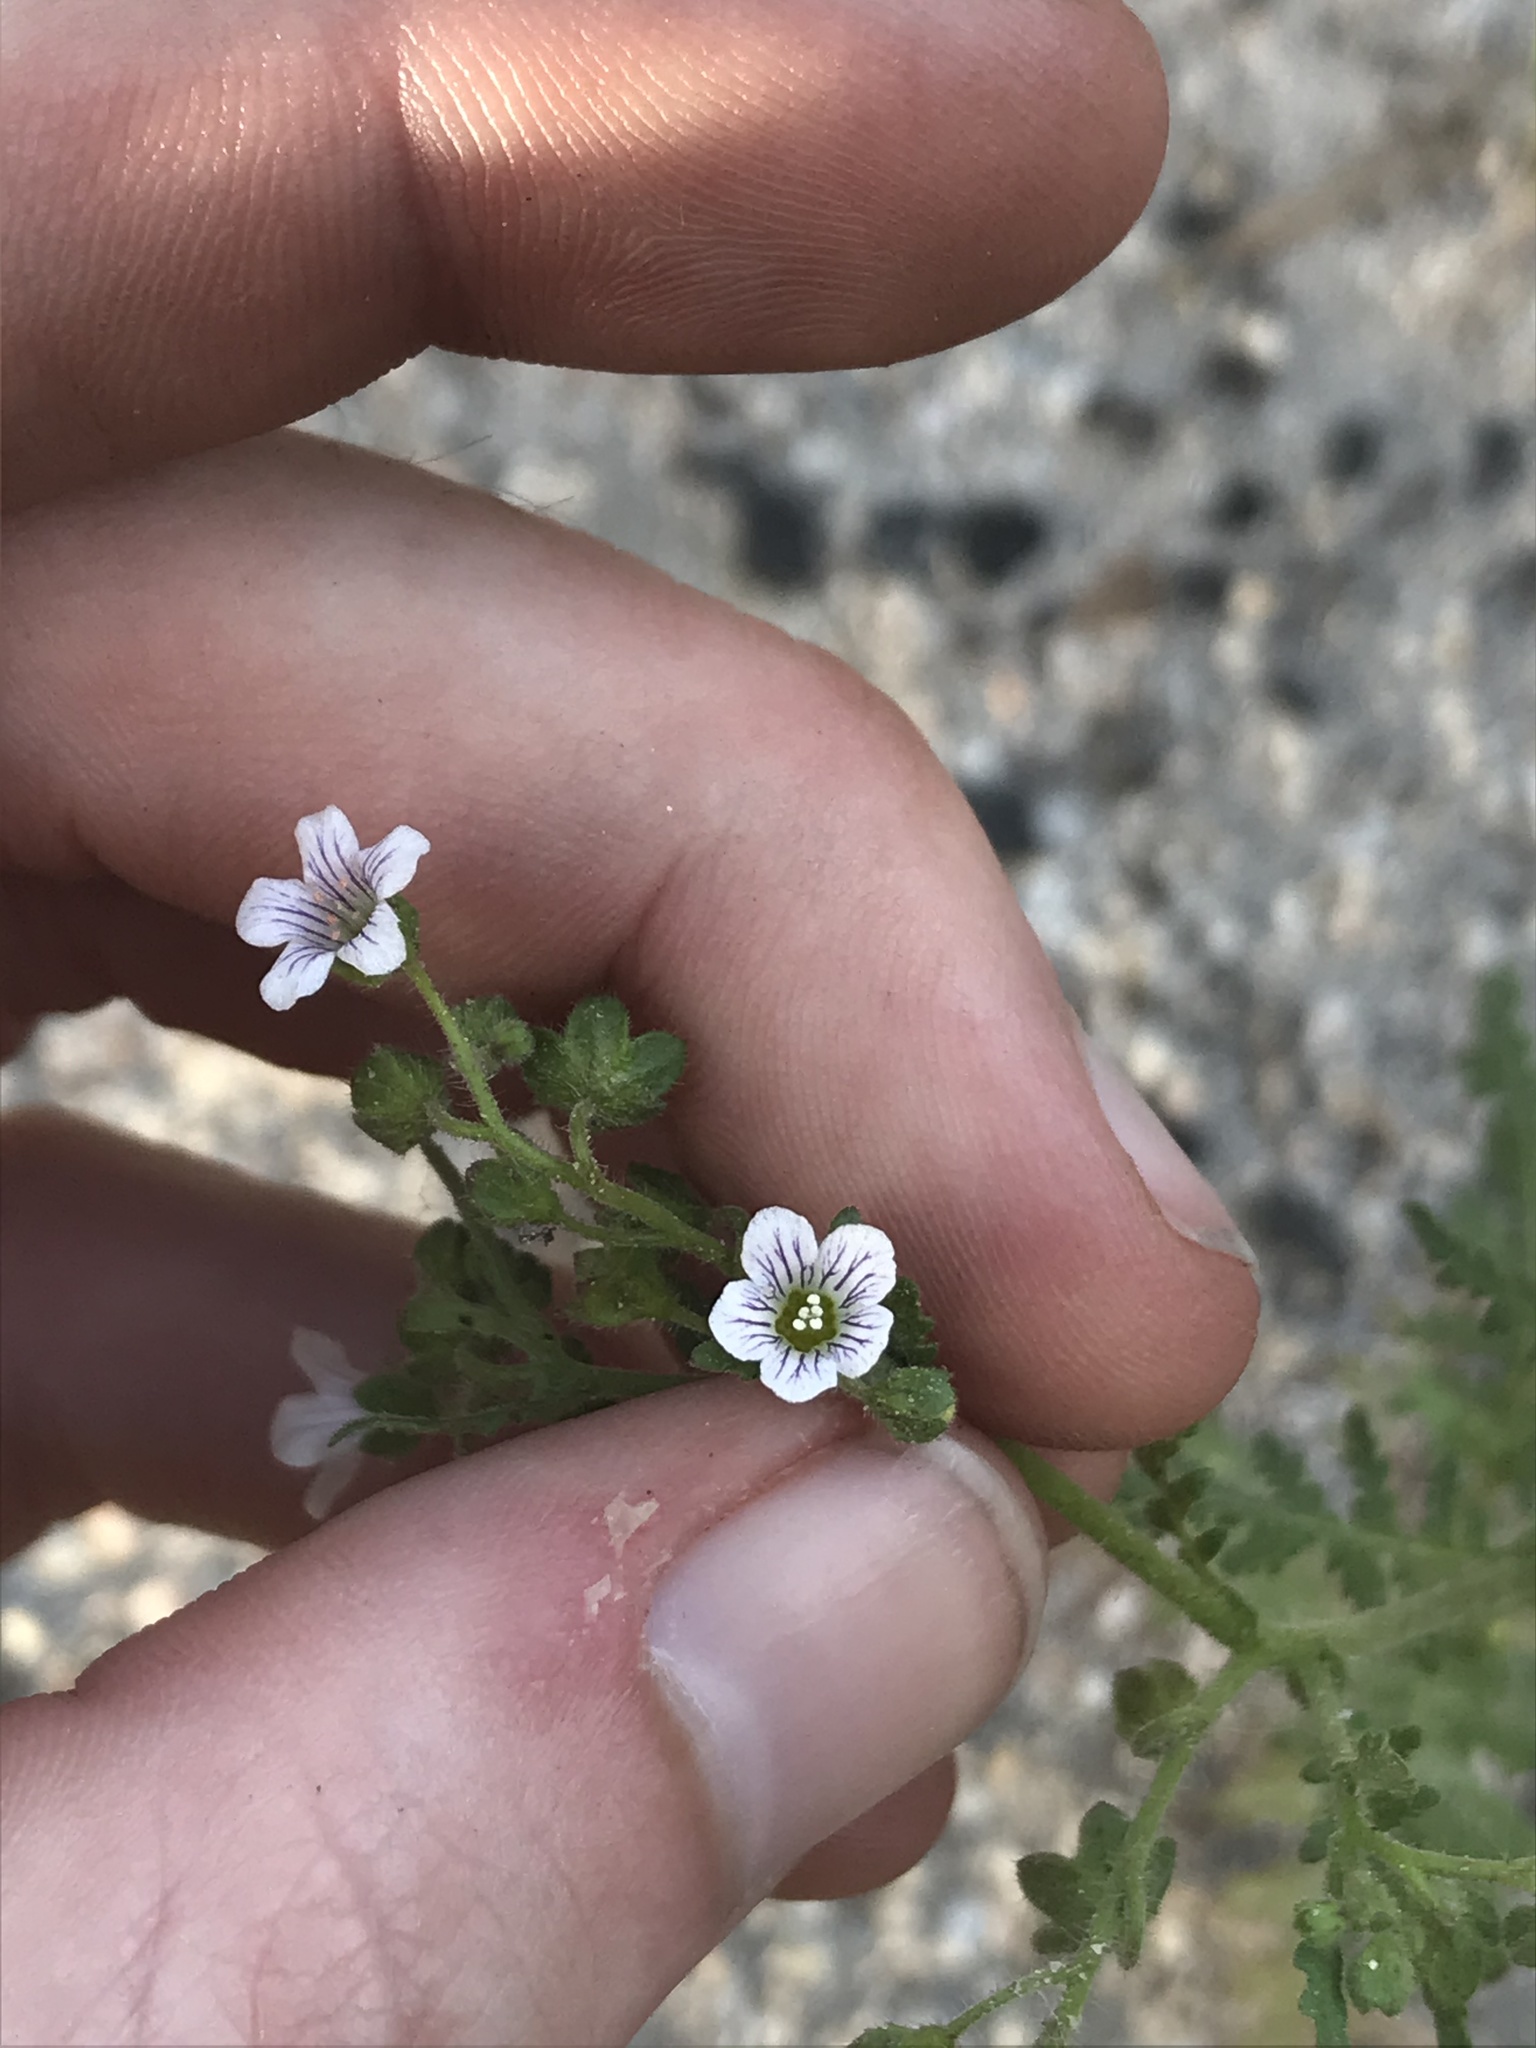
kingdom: Plantae
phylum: Tracheophyta
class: Magnoliopsida
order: Boraginales
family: Hydrophyllaceae
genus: Eucrypta
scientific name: Eucrypta chrysanthemifolia
